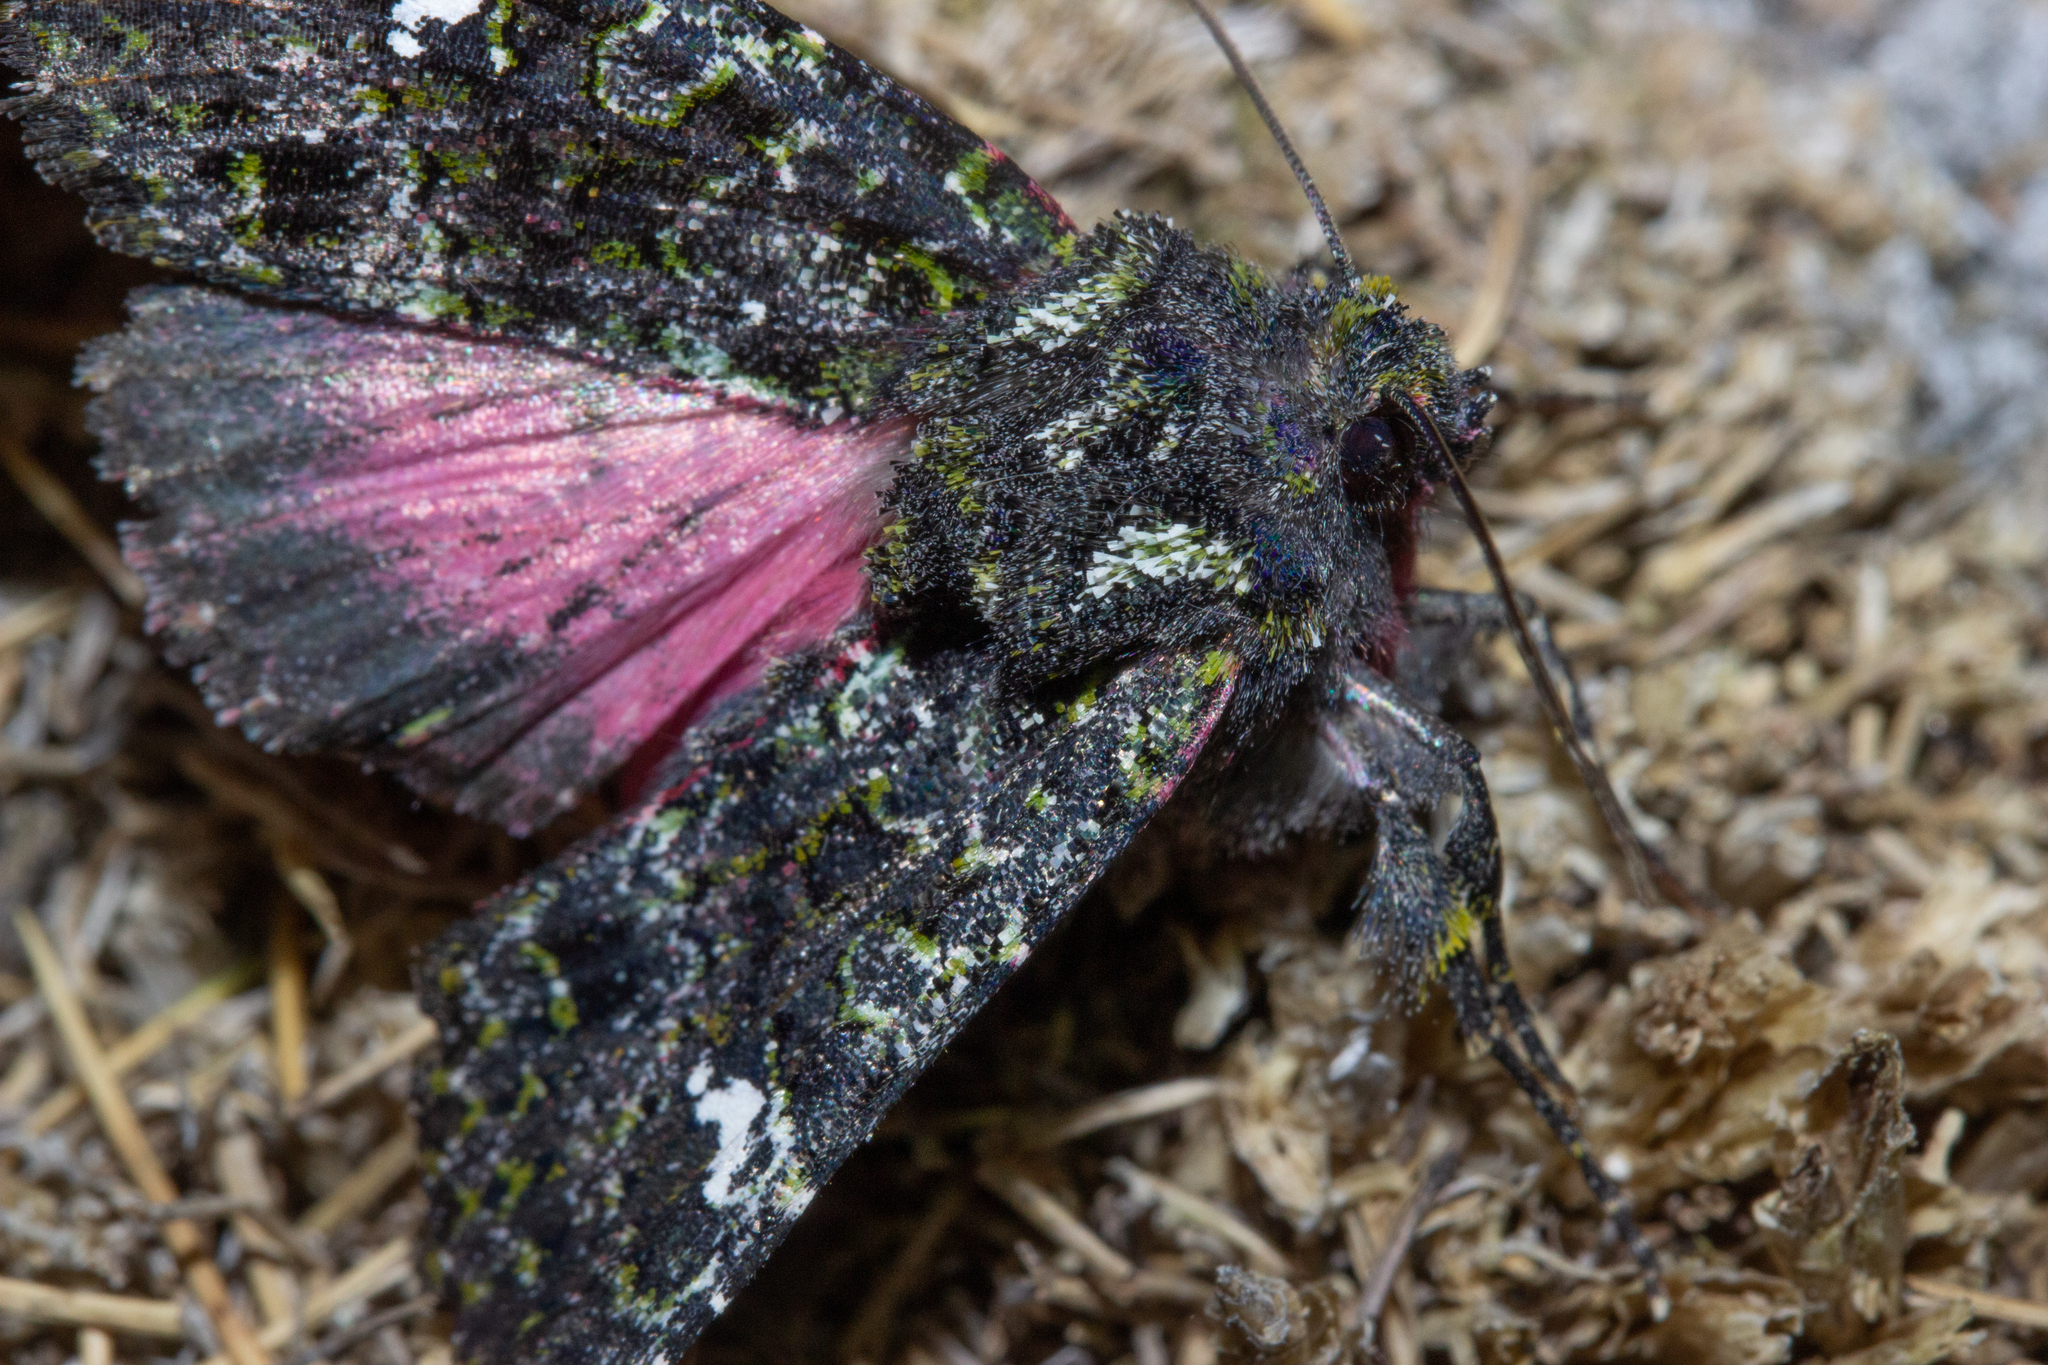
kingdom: Animalia
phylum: Arthropoda
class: Insecta
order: Lepidoptera
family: Noctuidae
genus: Meterana
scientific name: Meterana meyricci
